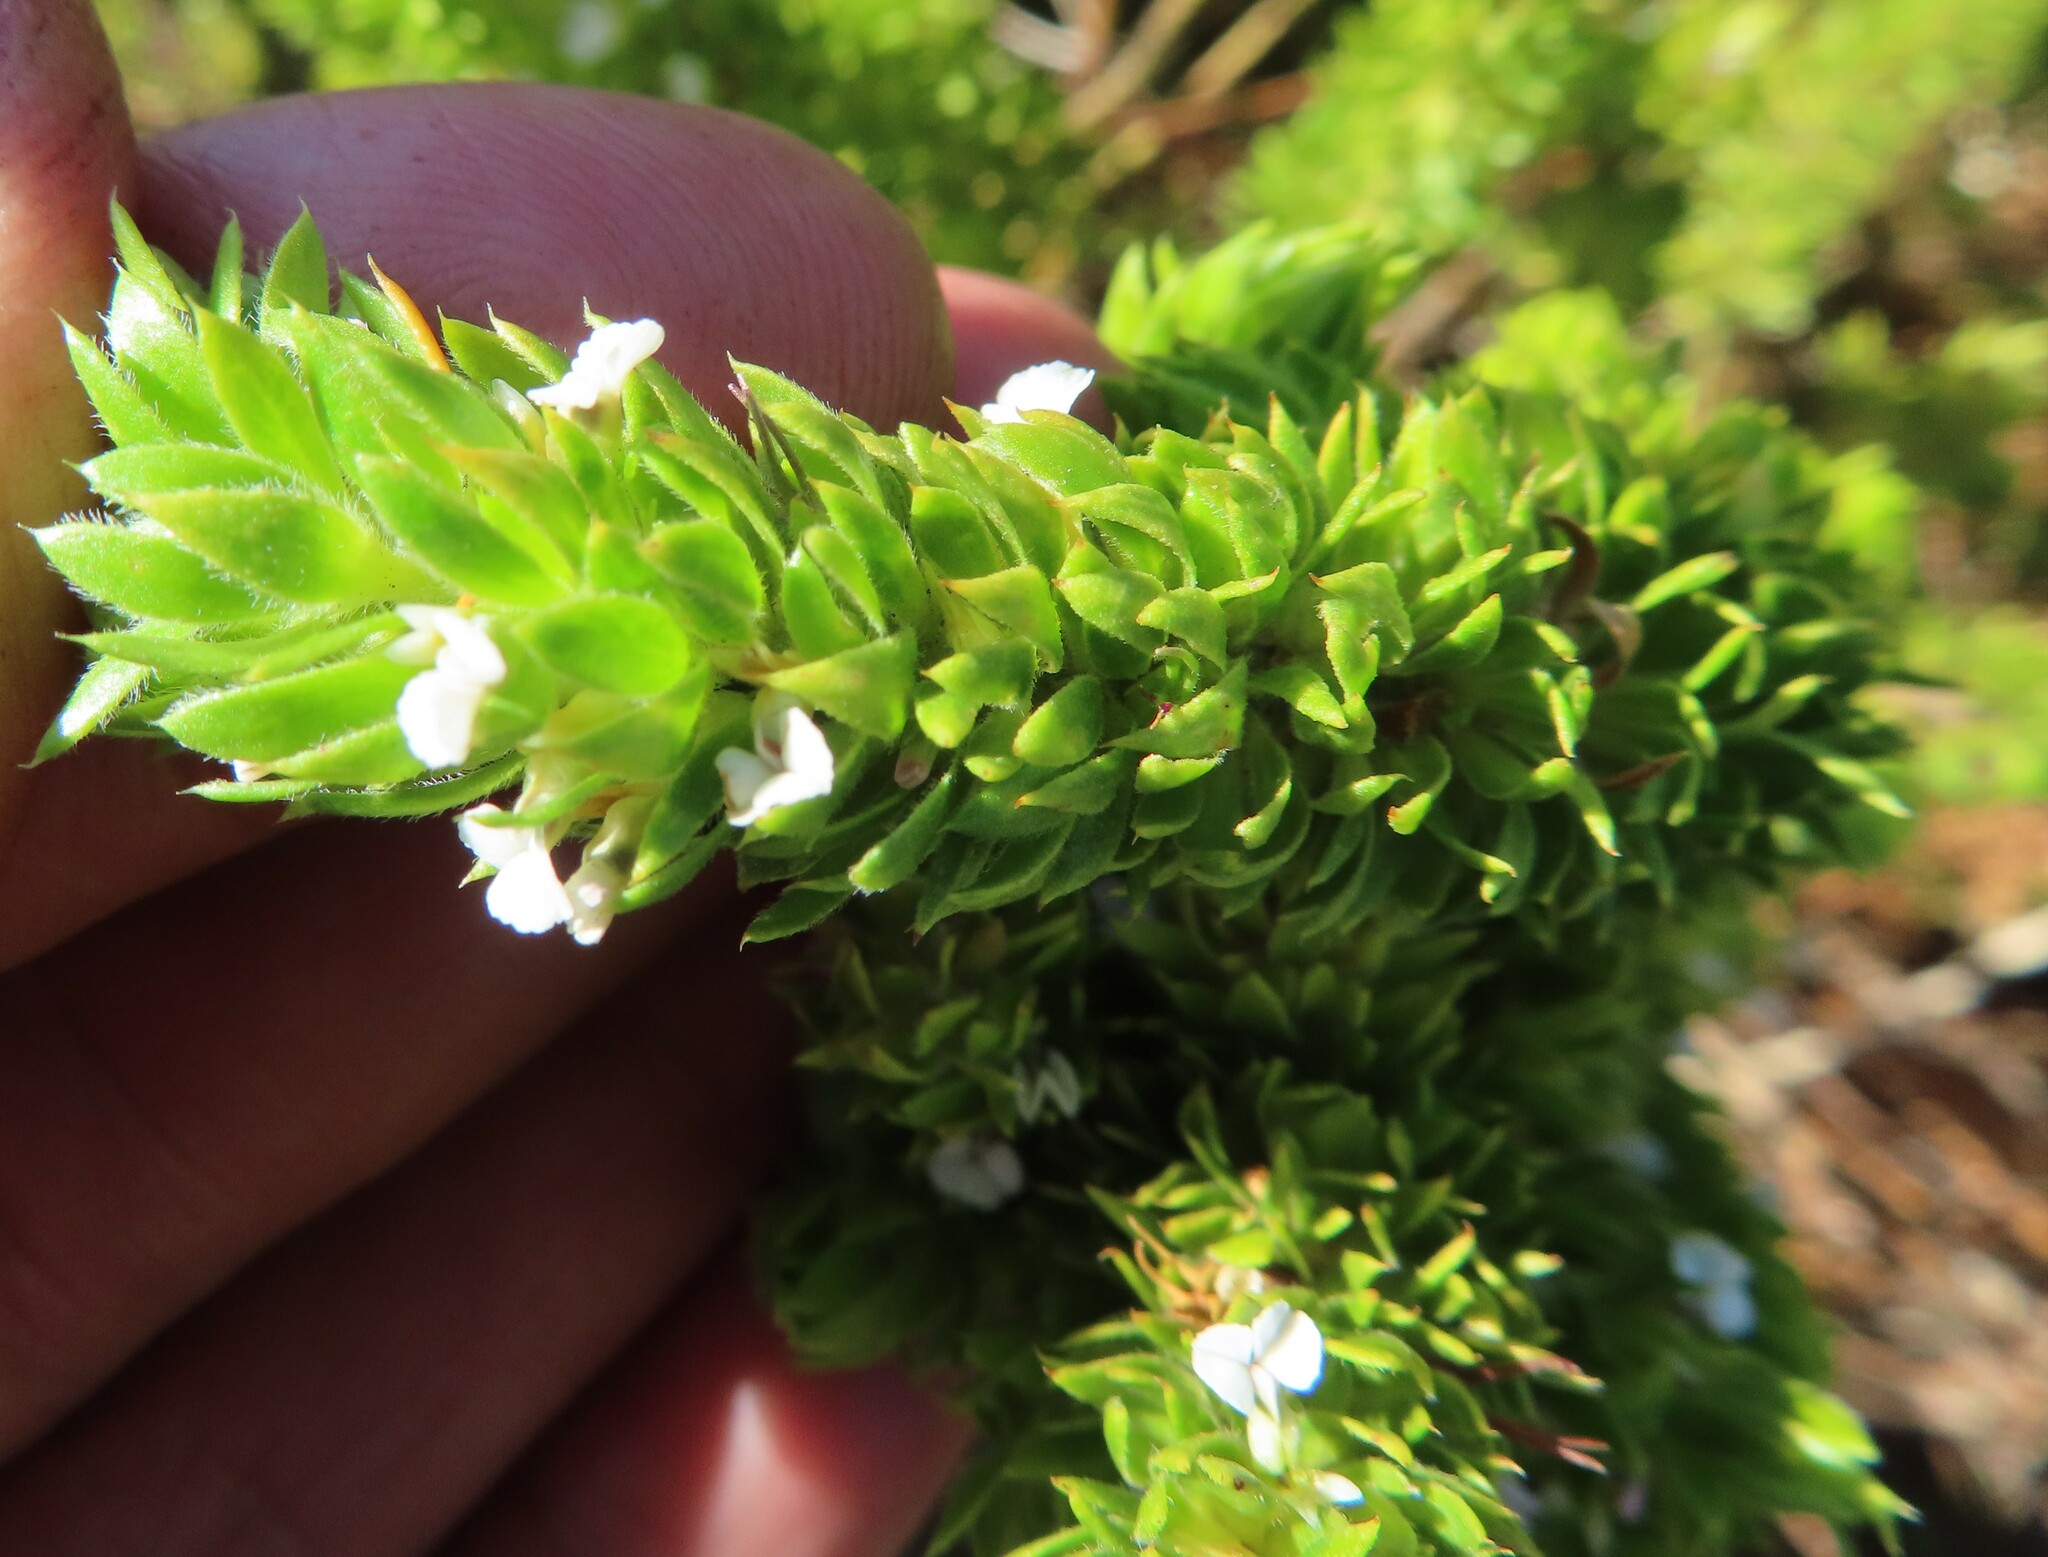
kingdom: Plantae
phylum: Tracheophyta
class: Magnoliopsida
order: Fabales
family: Polygalaceae
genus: Muraltia
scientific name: Muraltia alba
